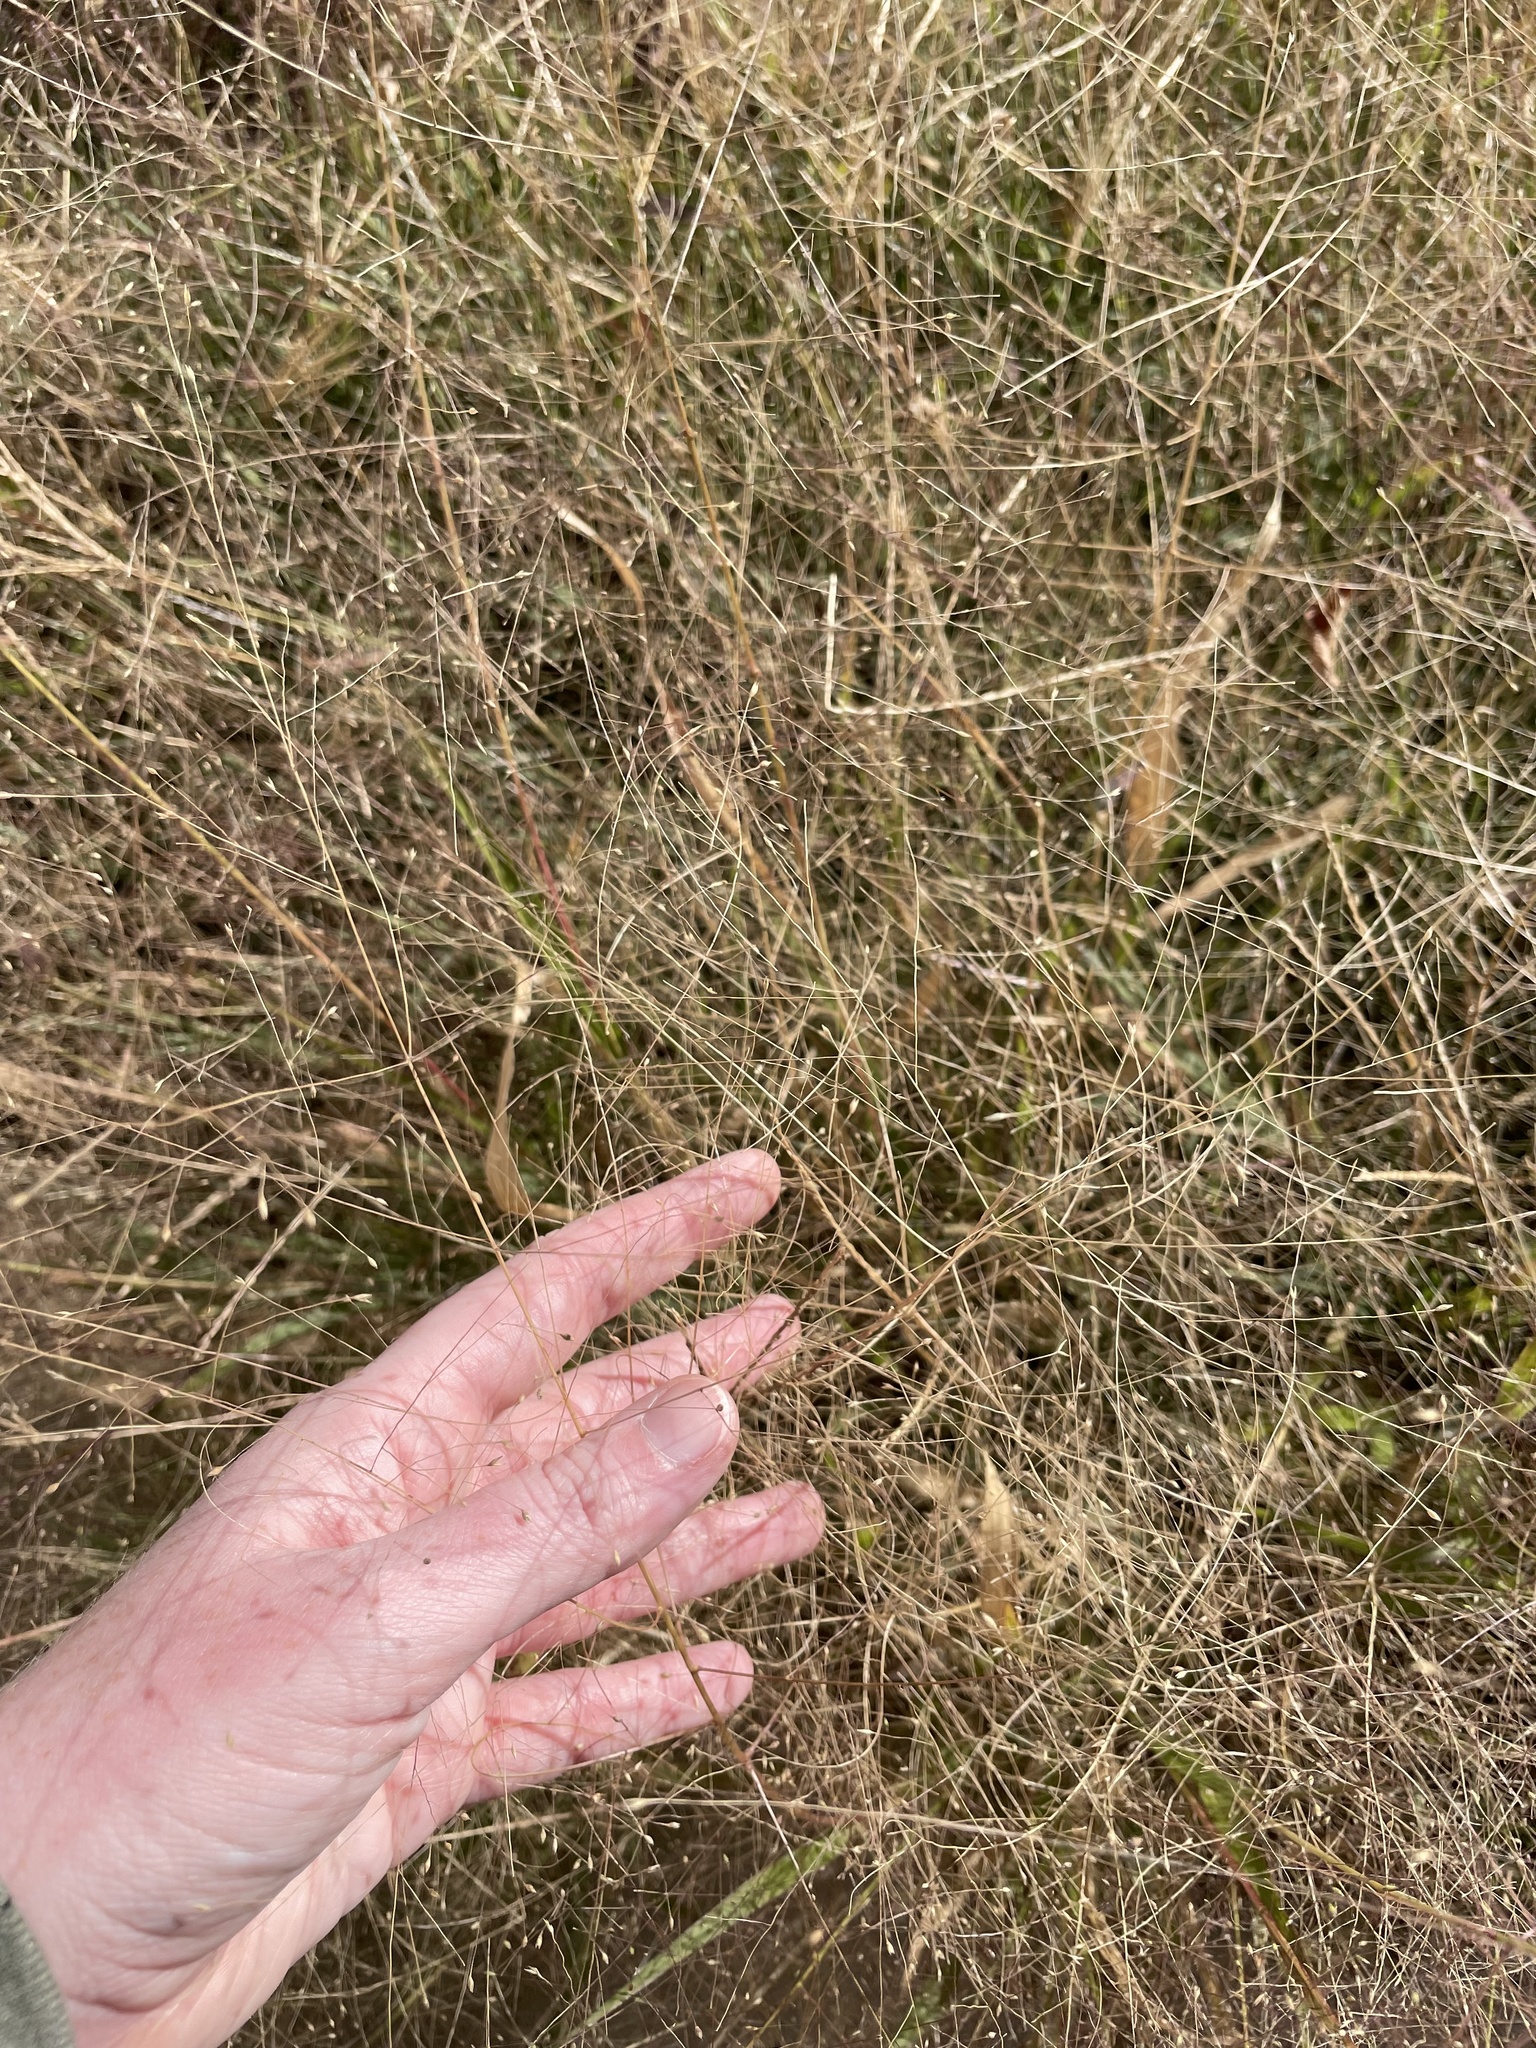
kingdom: Plantae
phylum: Tracheophyta
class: Liliopsida
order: Poales
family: Poaceae
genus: Panicum
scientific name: Panicum capillare
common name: Witch-grass
